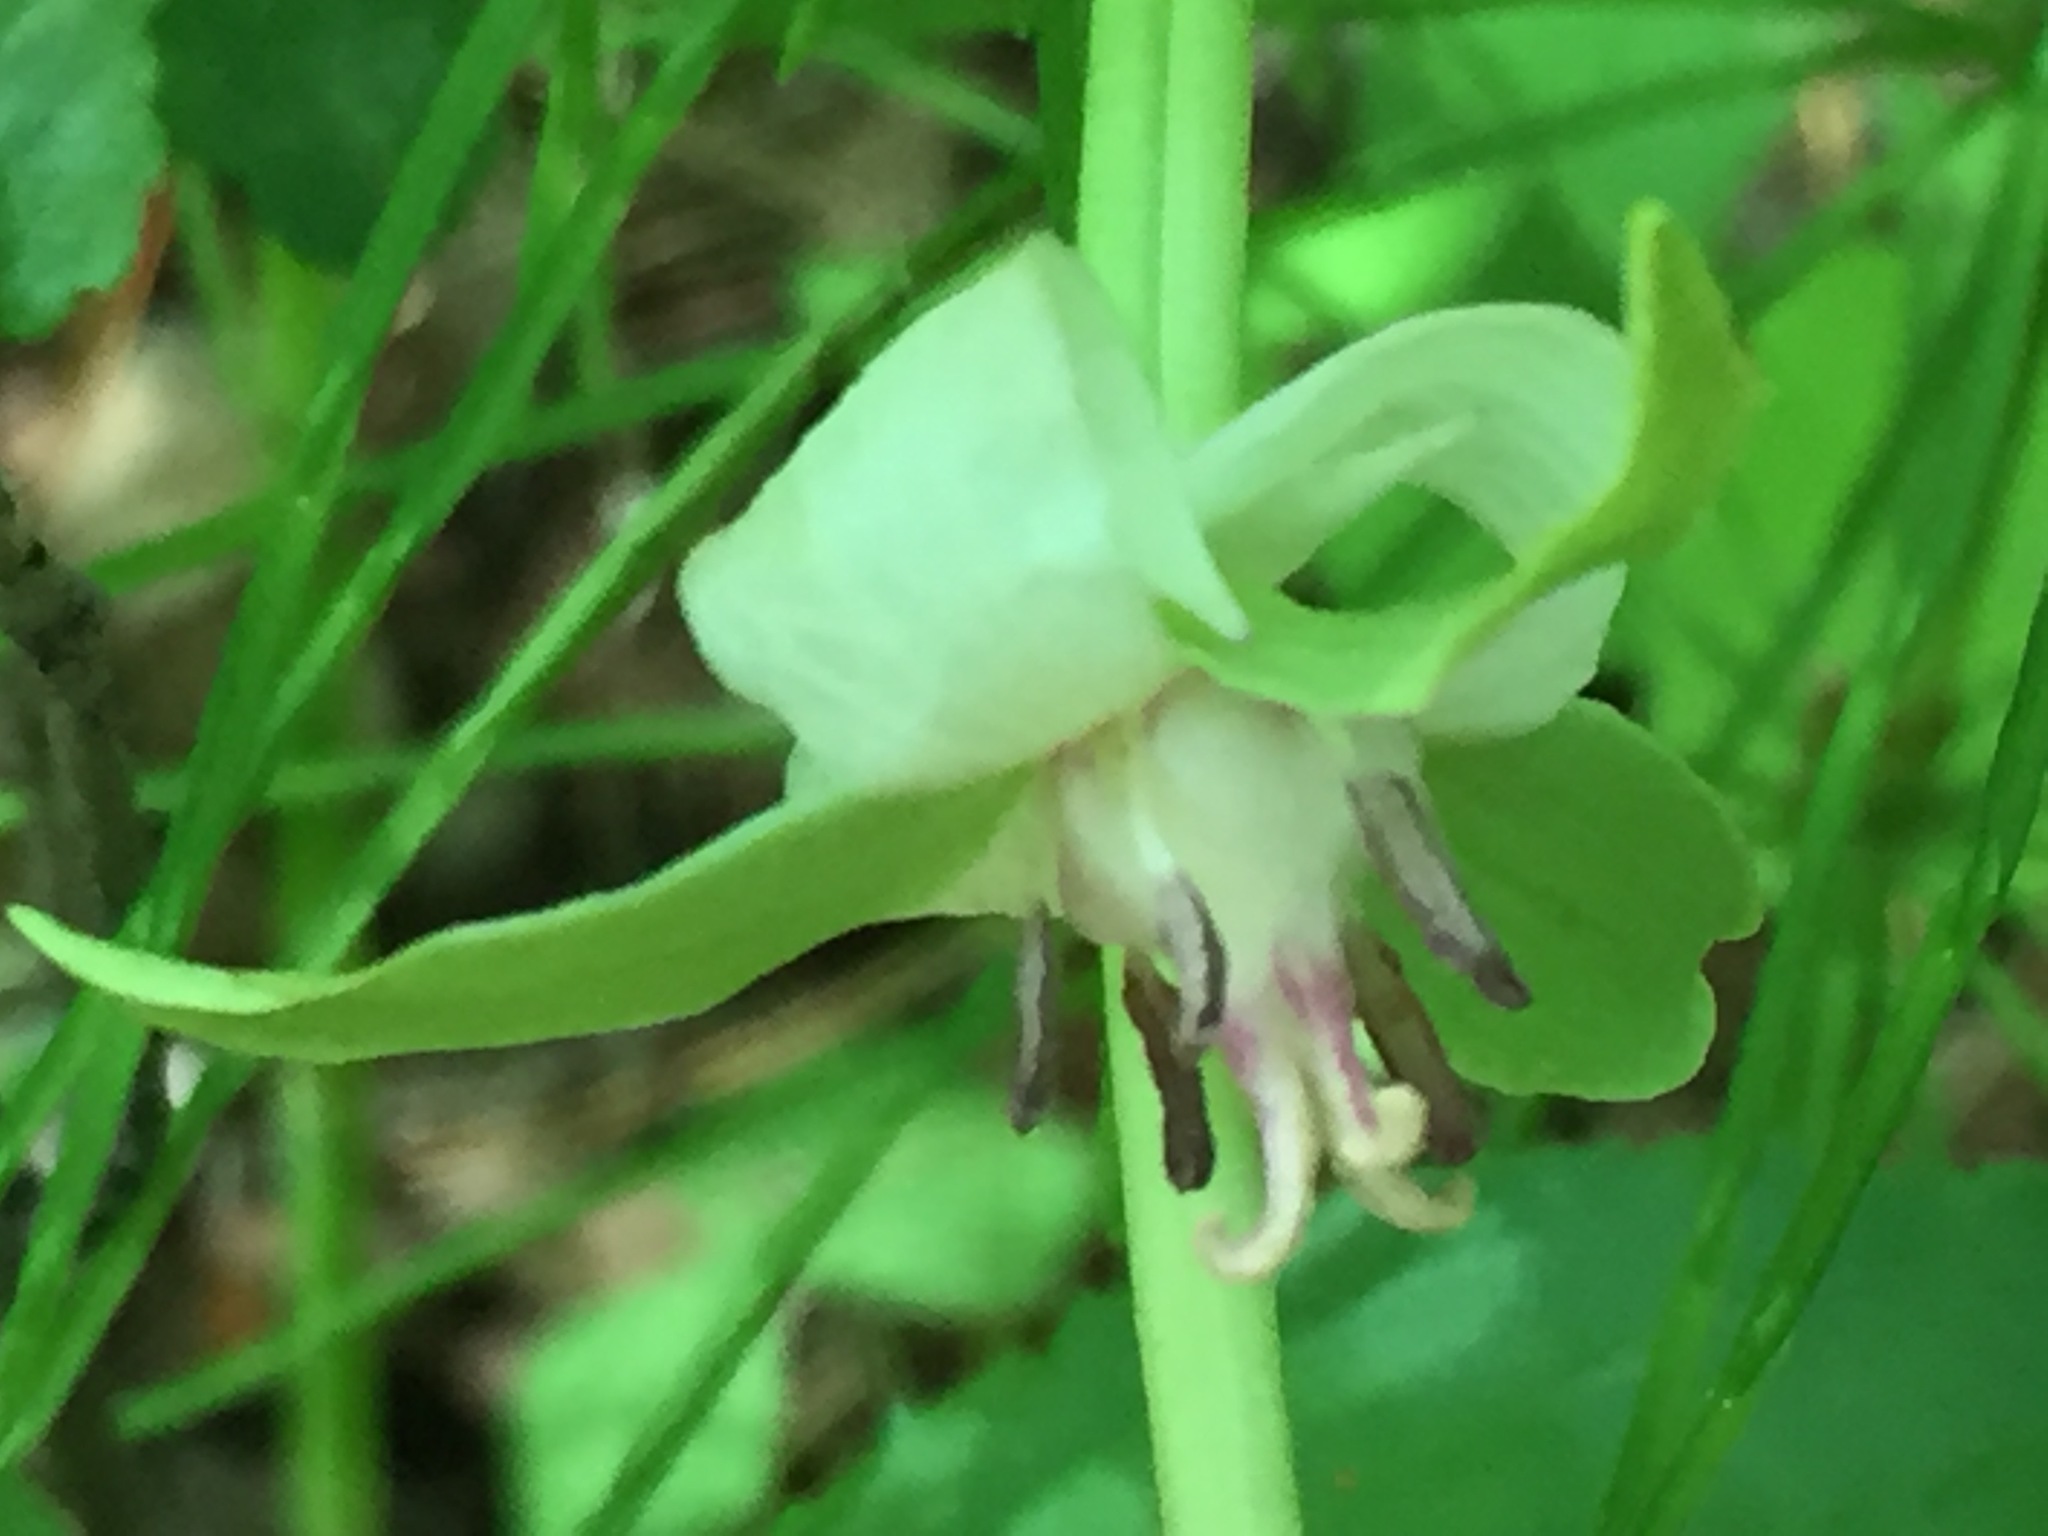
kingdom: Plantae
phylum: Tracheophyta
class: Liliopsida
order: Liliales
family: Melanthiaceae
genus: Trillium
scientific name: Trillium cernuum
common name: Nodding trillium
